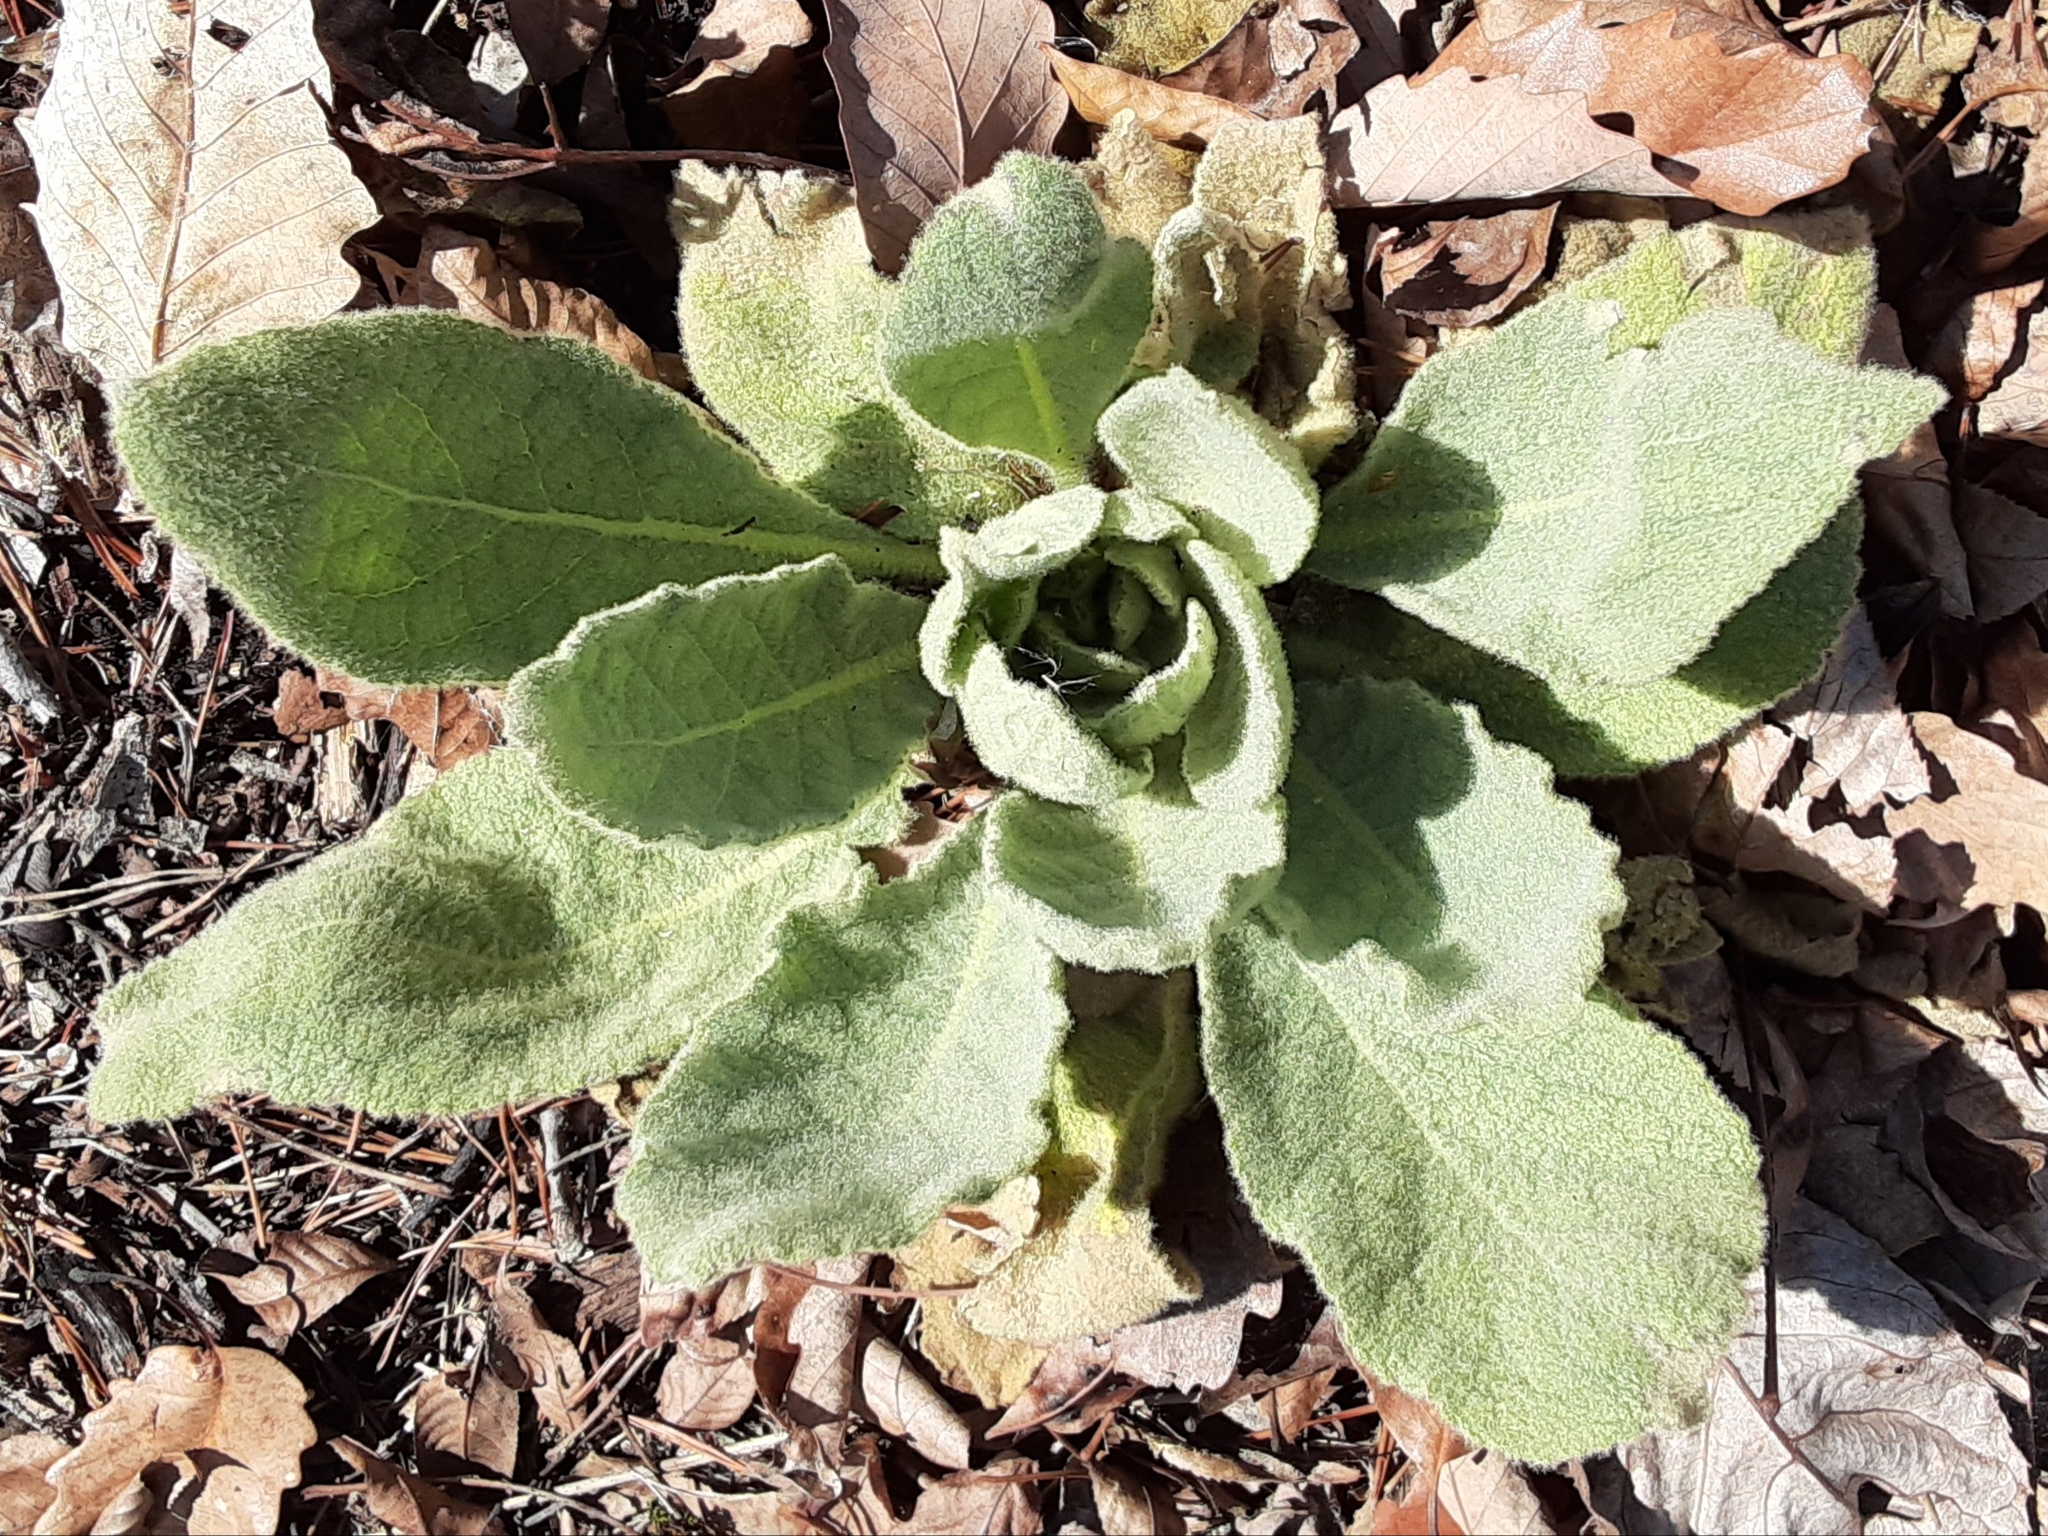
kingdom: Plantae
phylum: Tracheophyta
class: Magnoliopsida
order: Lamiales
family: Scrophulariaceae
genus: Verbascum
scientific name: Verbascum thapsus
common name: Common mullein
